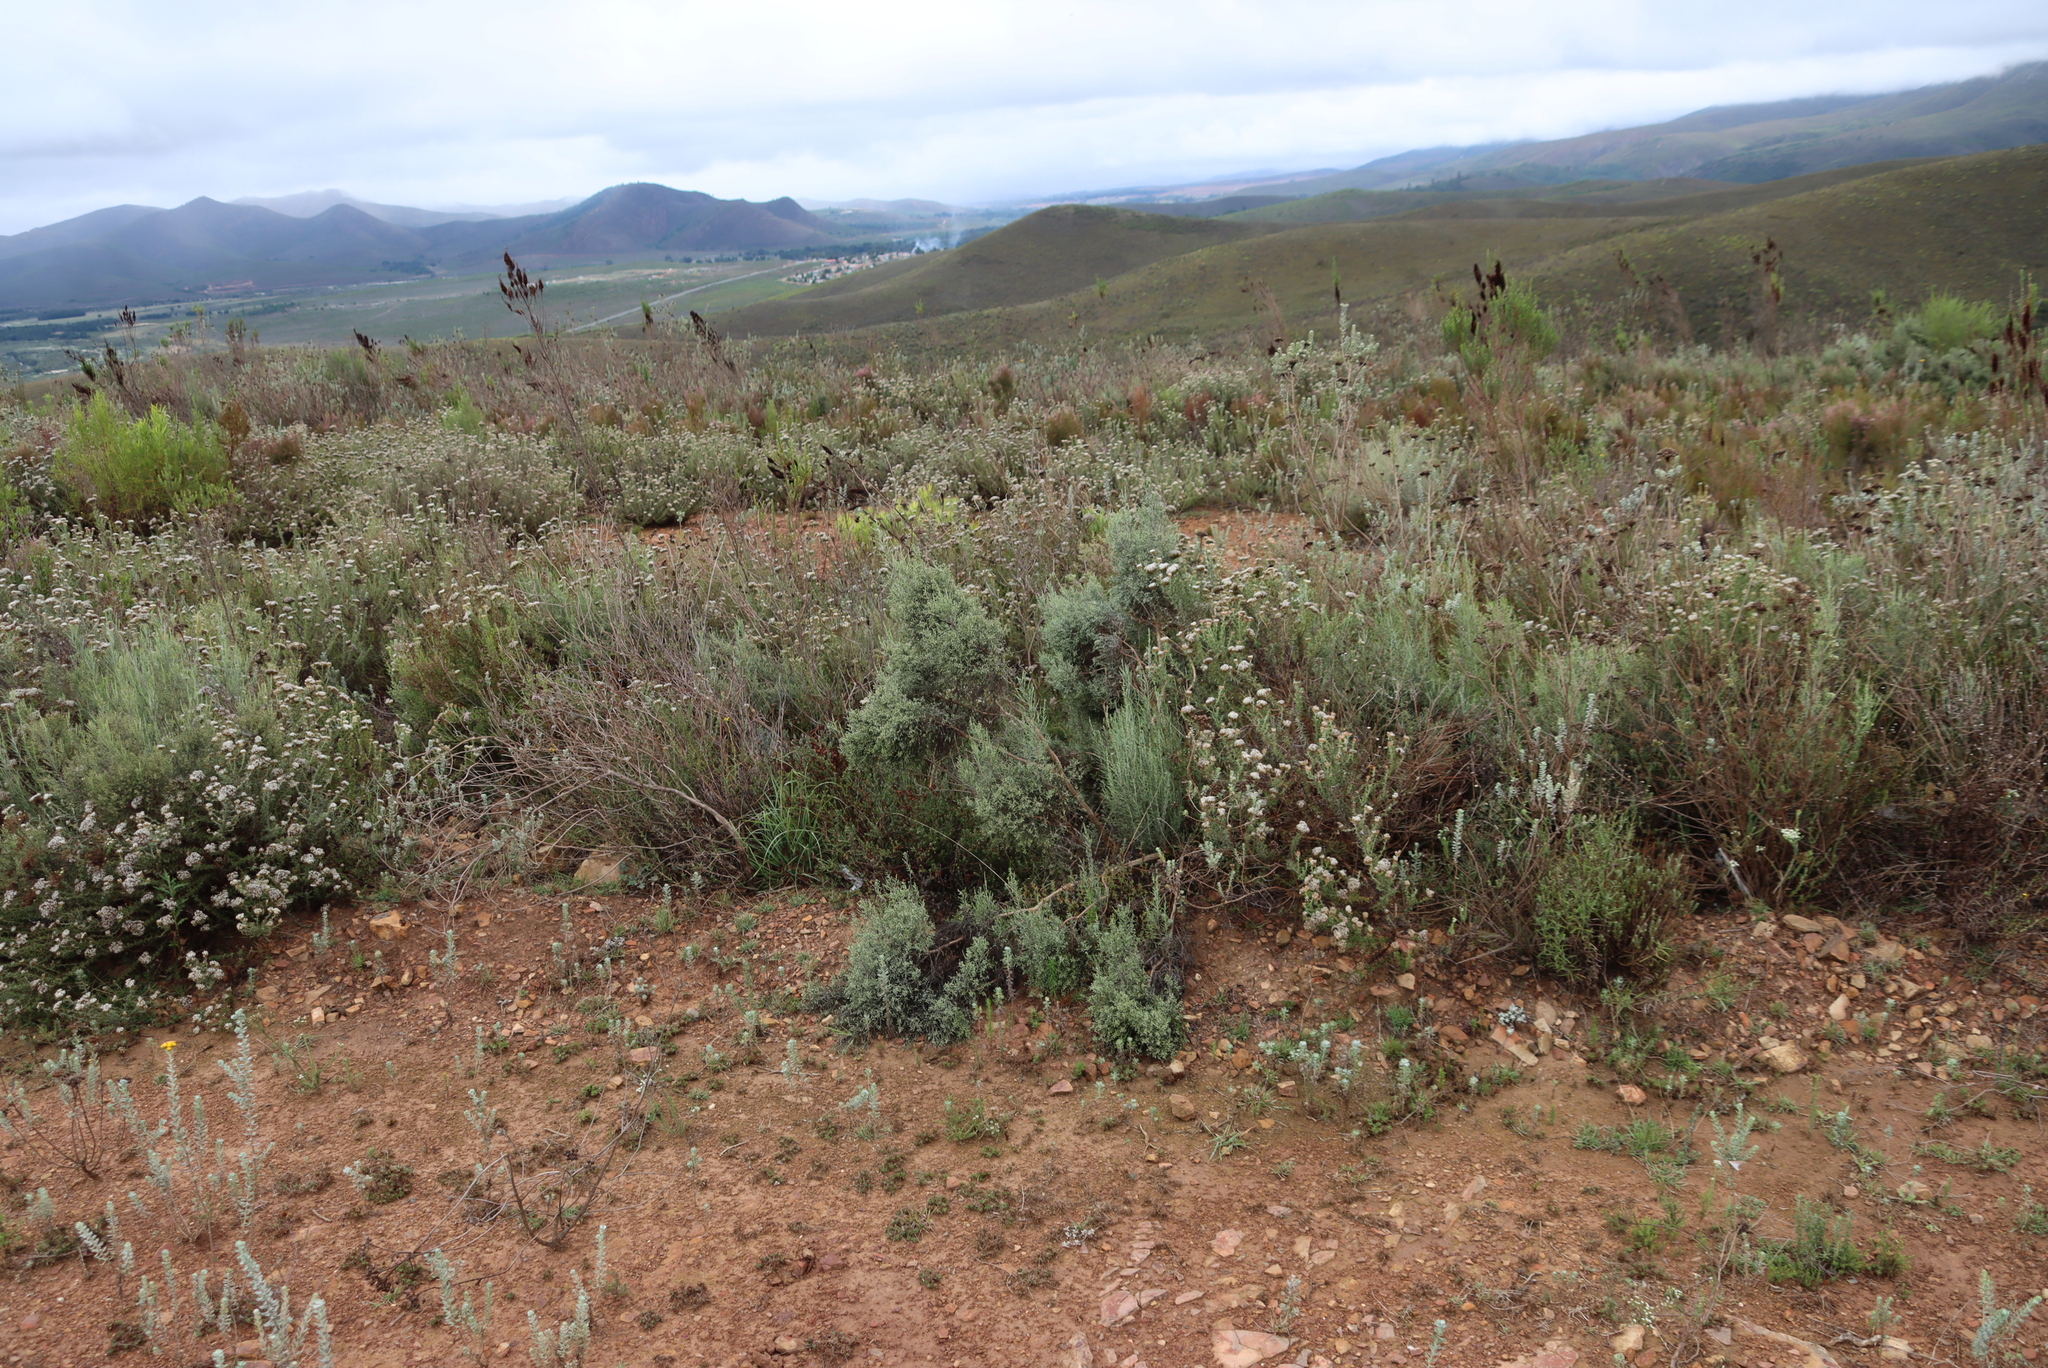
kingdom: Plantae
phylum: Tracheophyta
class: Magnoliopsida
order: Asterales
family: Asteraceae
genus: Dicerothamnus
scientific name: Dicerothamnus rhinocerotis
